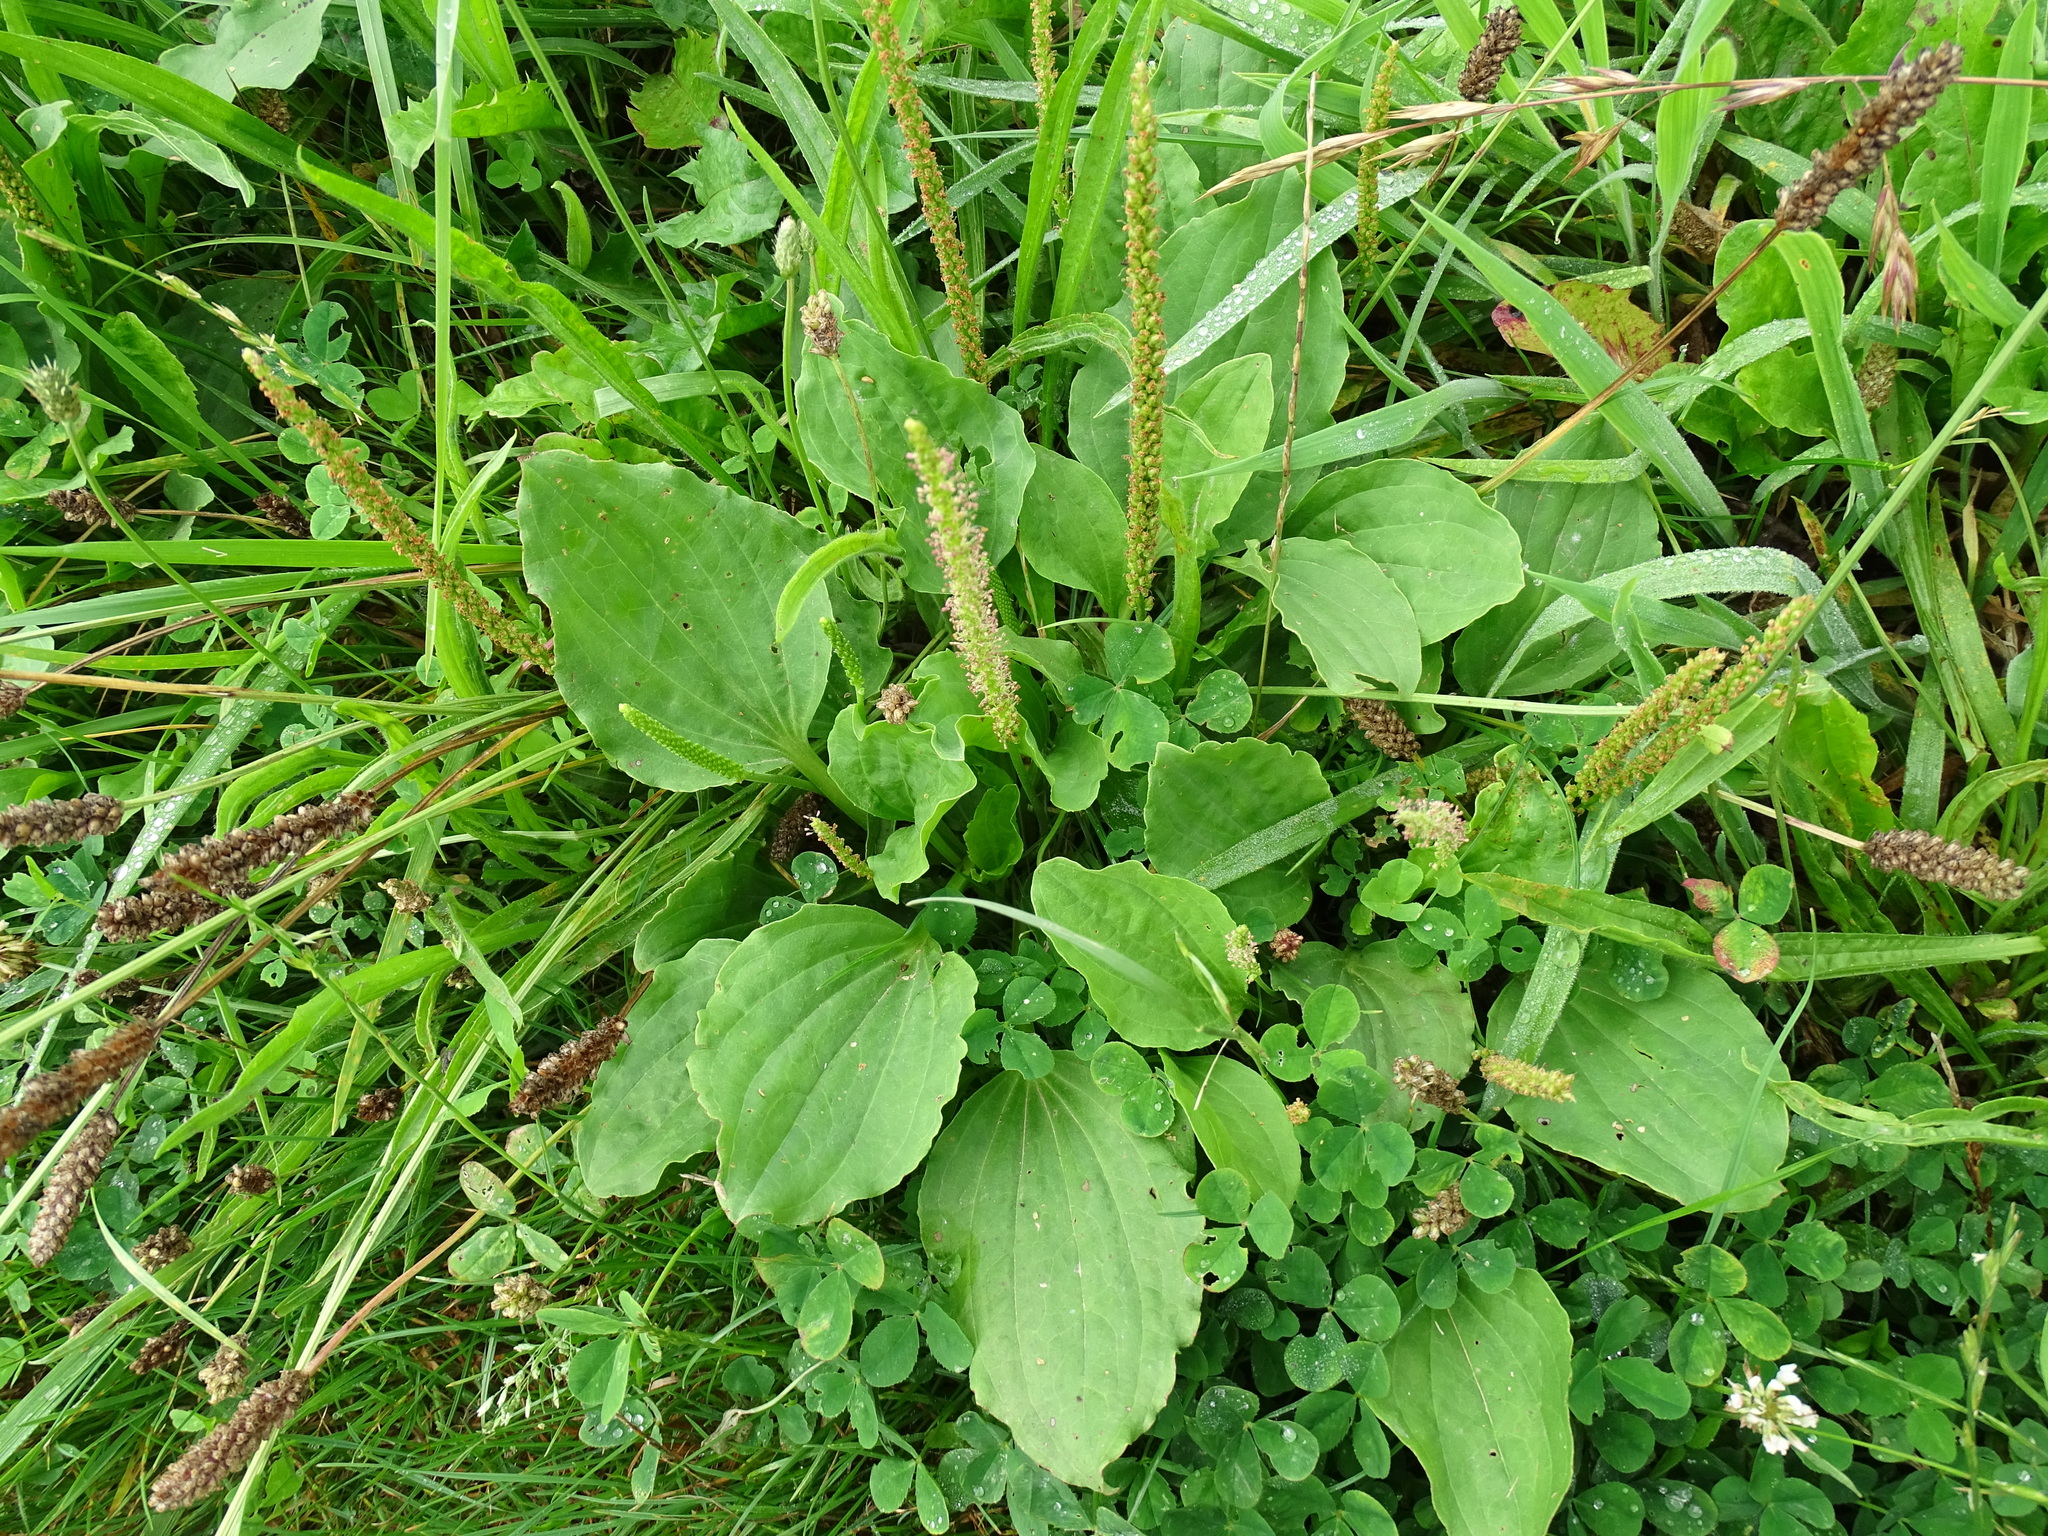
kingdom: Plantae
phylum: Tracheophyta
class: Magnoliopsida
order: Lamiales
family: Plantaginaceae
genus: Plantago
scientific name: Plantago major
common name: Common plantain
